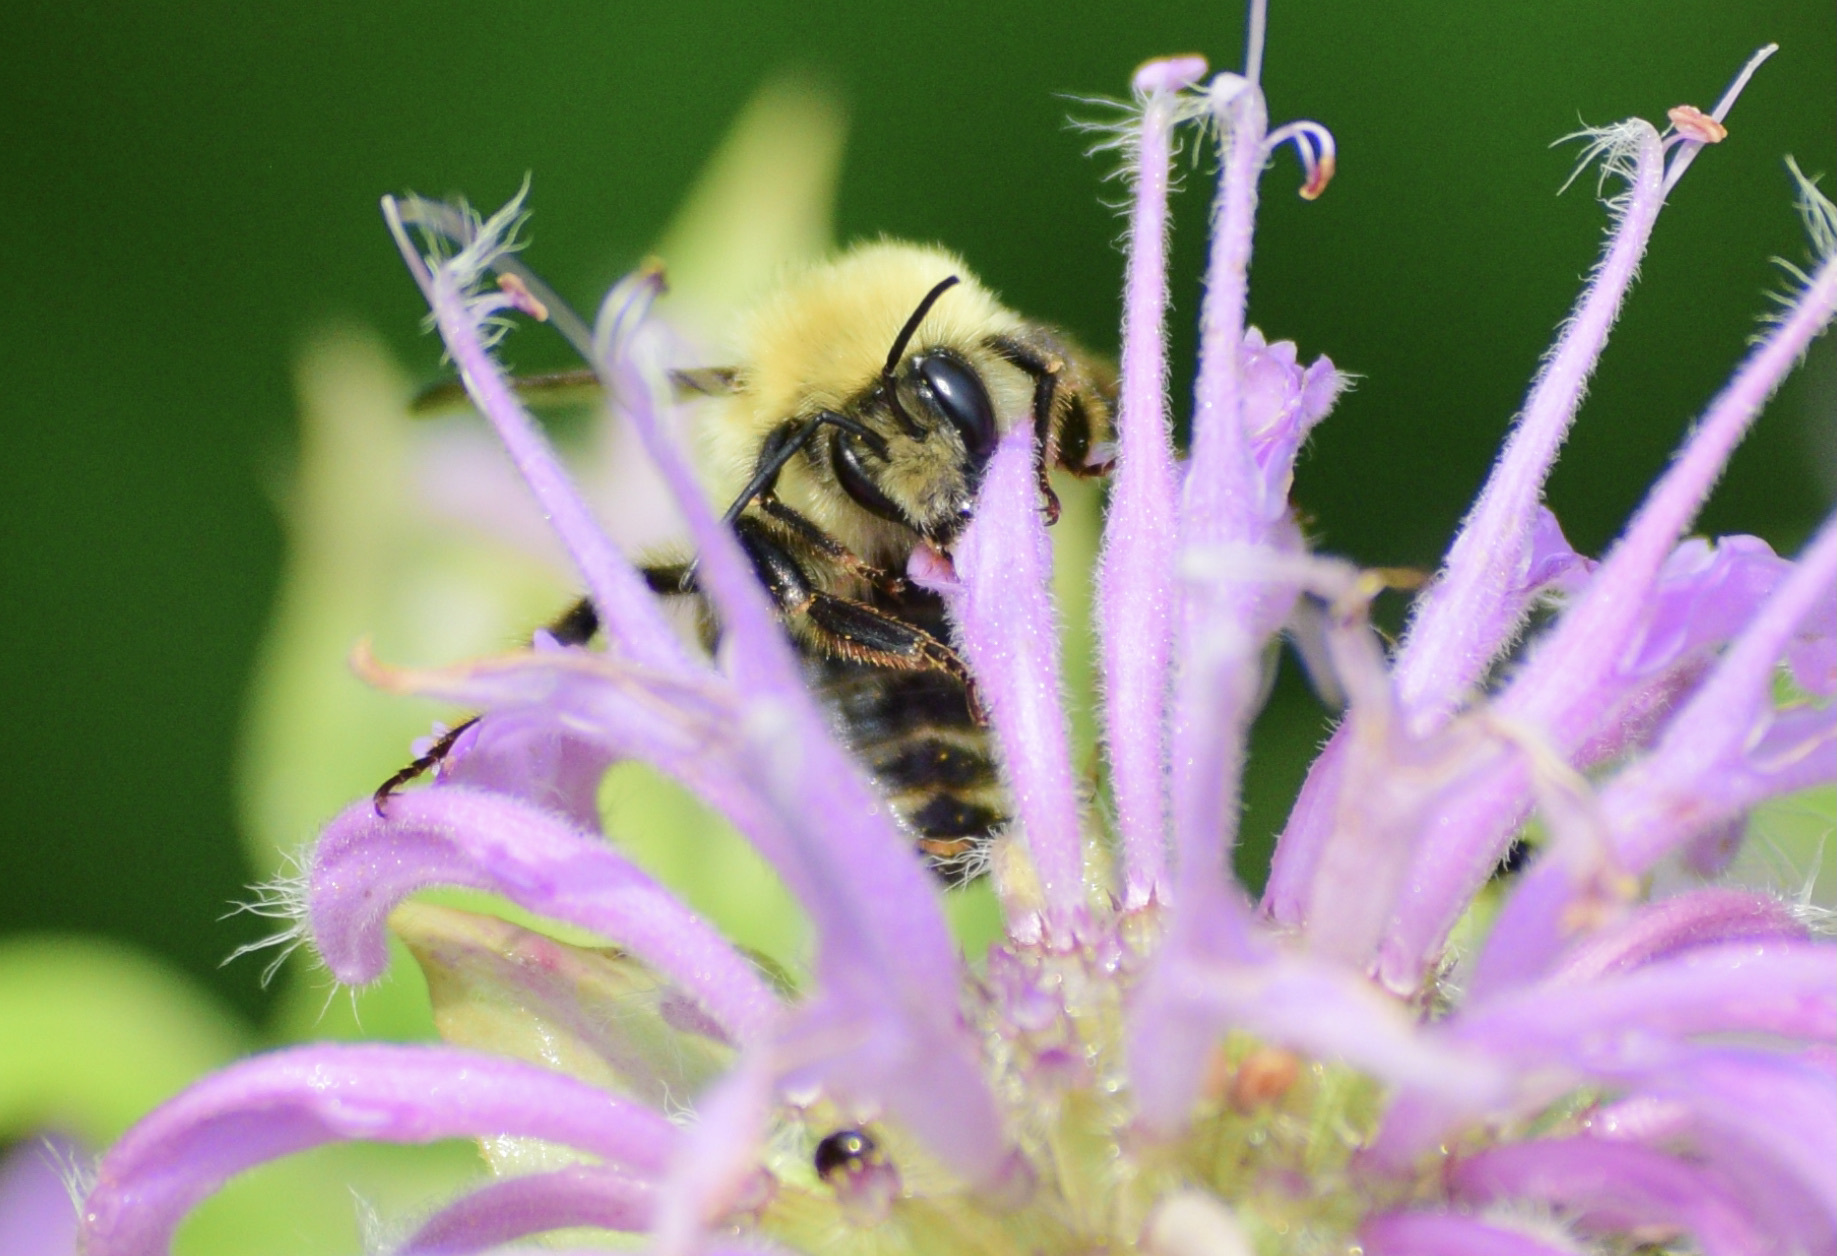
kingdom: Animalia
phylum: Arthropoda
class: Insecta
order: Hymenoptera
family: Apidae
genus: Bombus
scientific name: Bombus bimaculatus
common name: Two-spotted bumble bee
